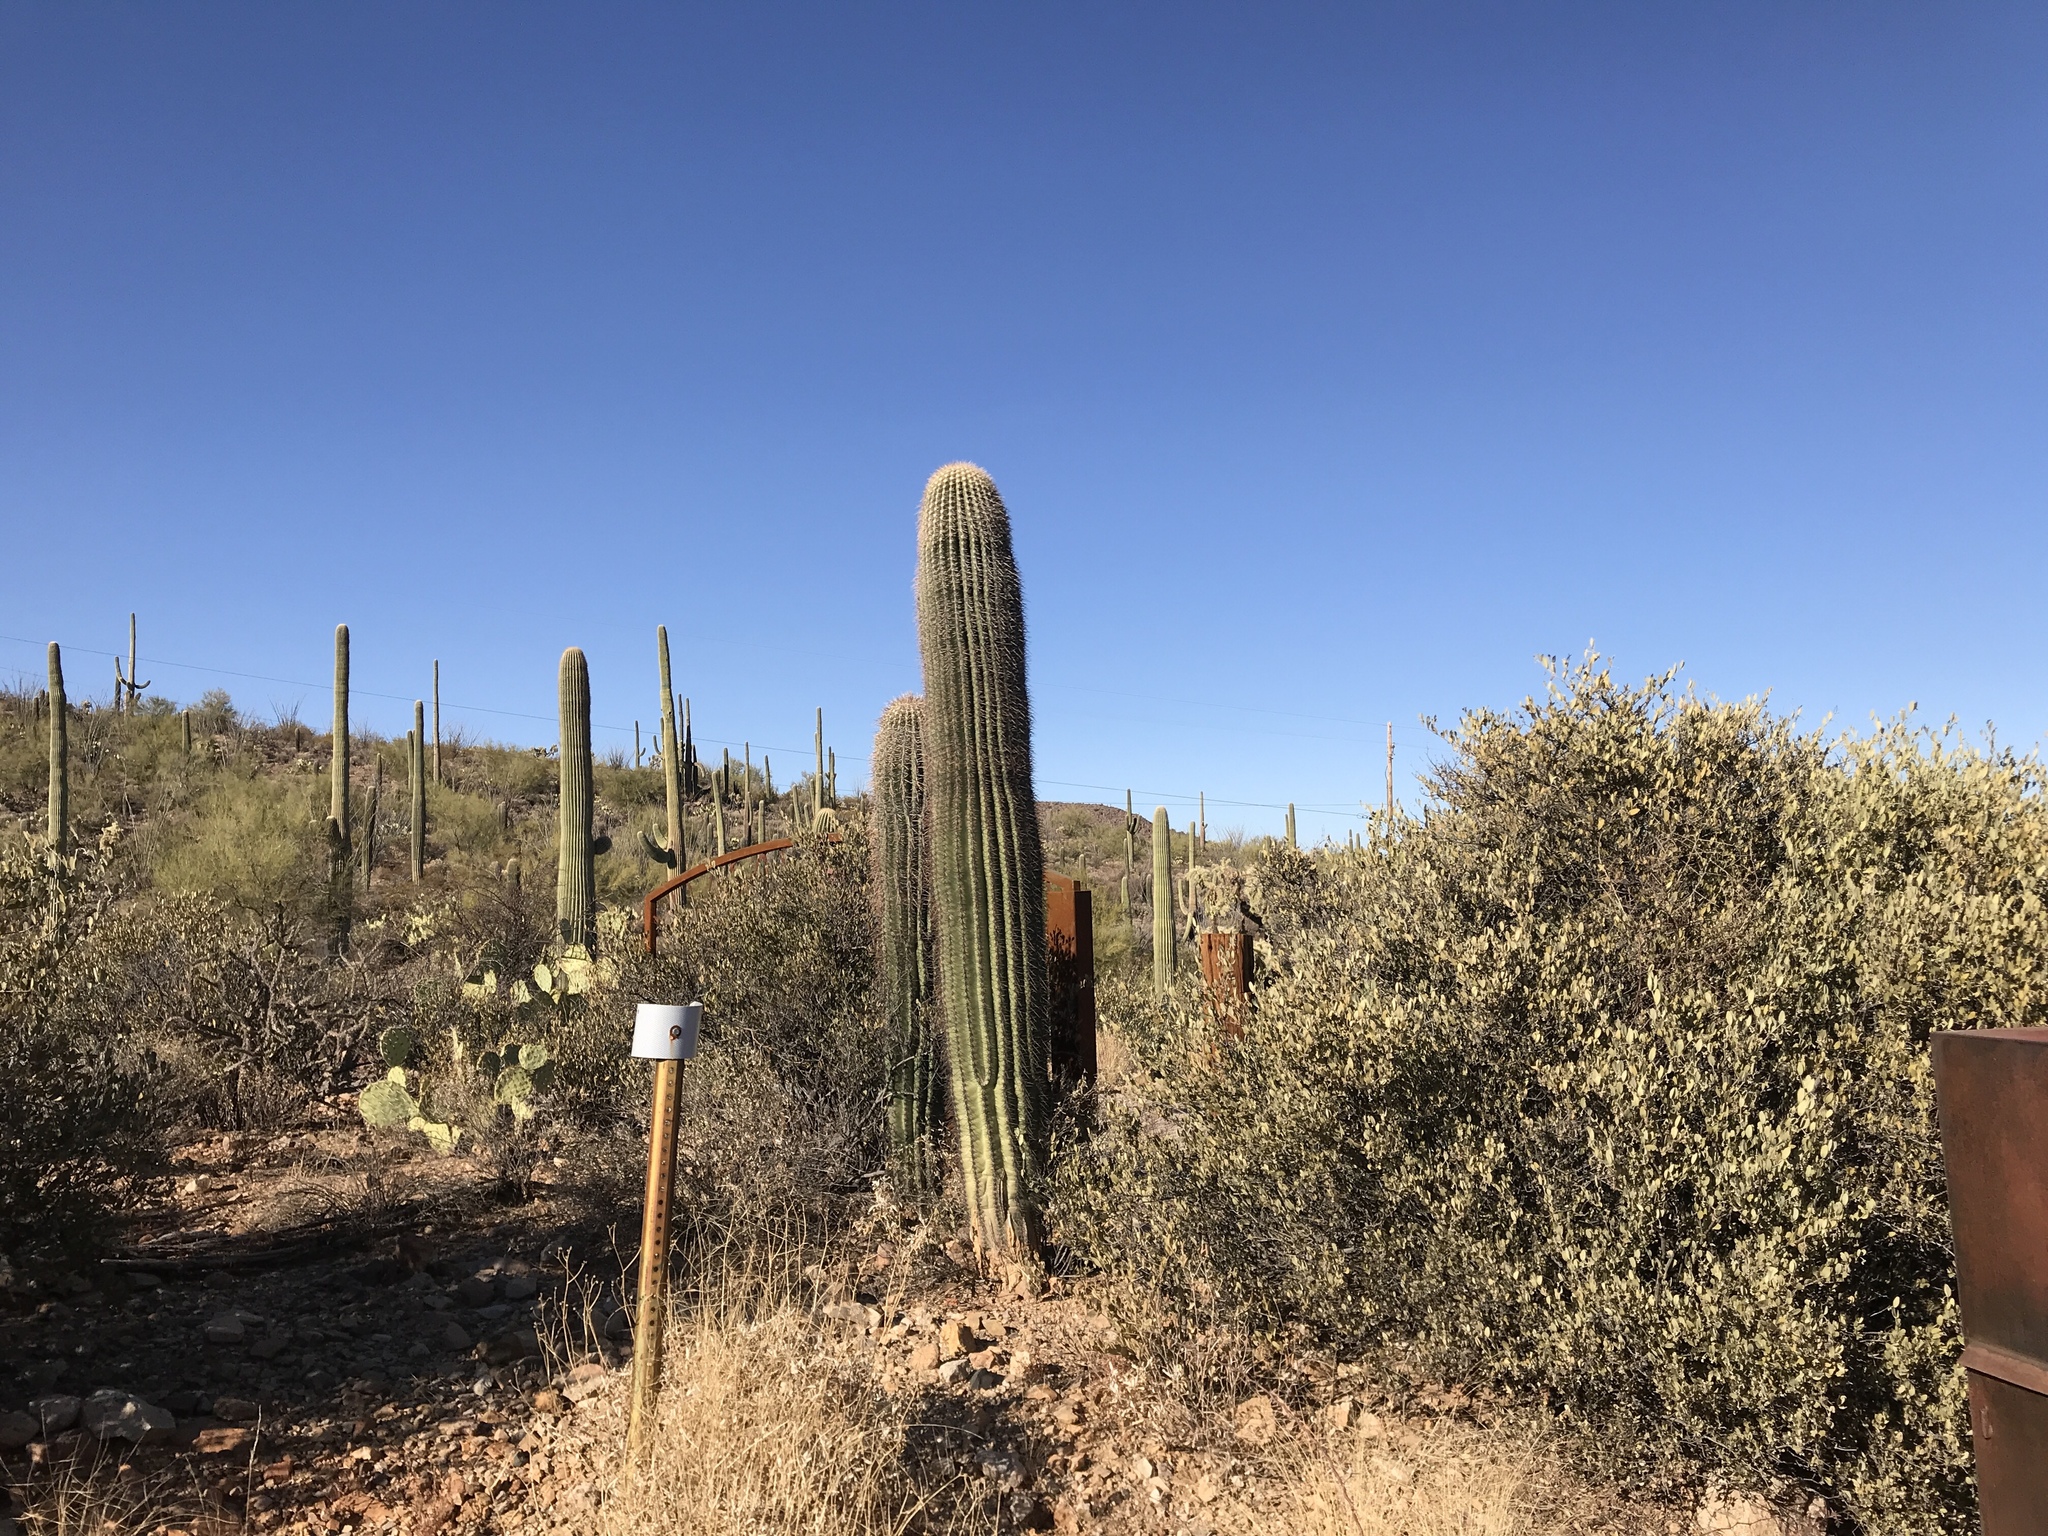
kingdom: Plantae
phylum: Tracheophyta
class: Magnoliopsida
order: Caryophyllales
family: Cactaceae
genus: Carnegiea
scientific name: Carnegiea gigantea
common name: Saguaro
